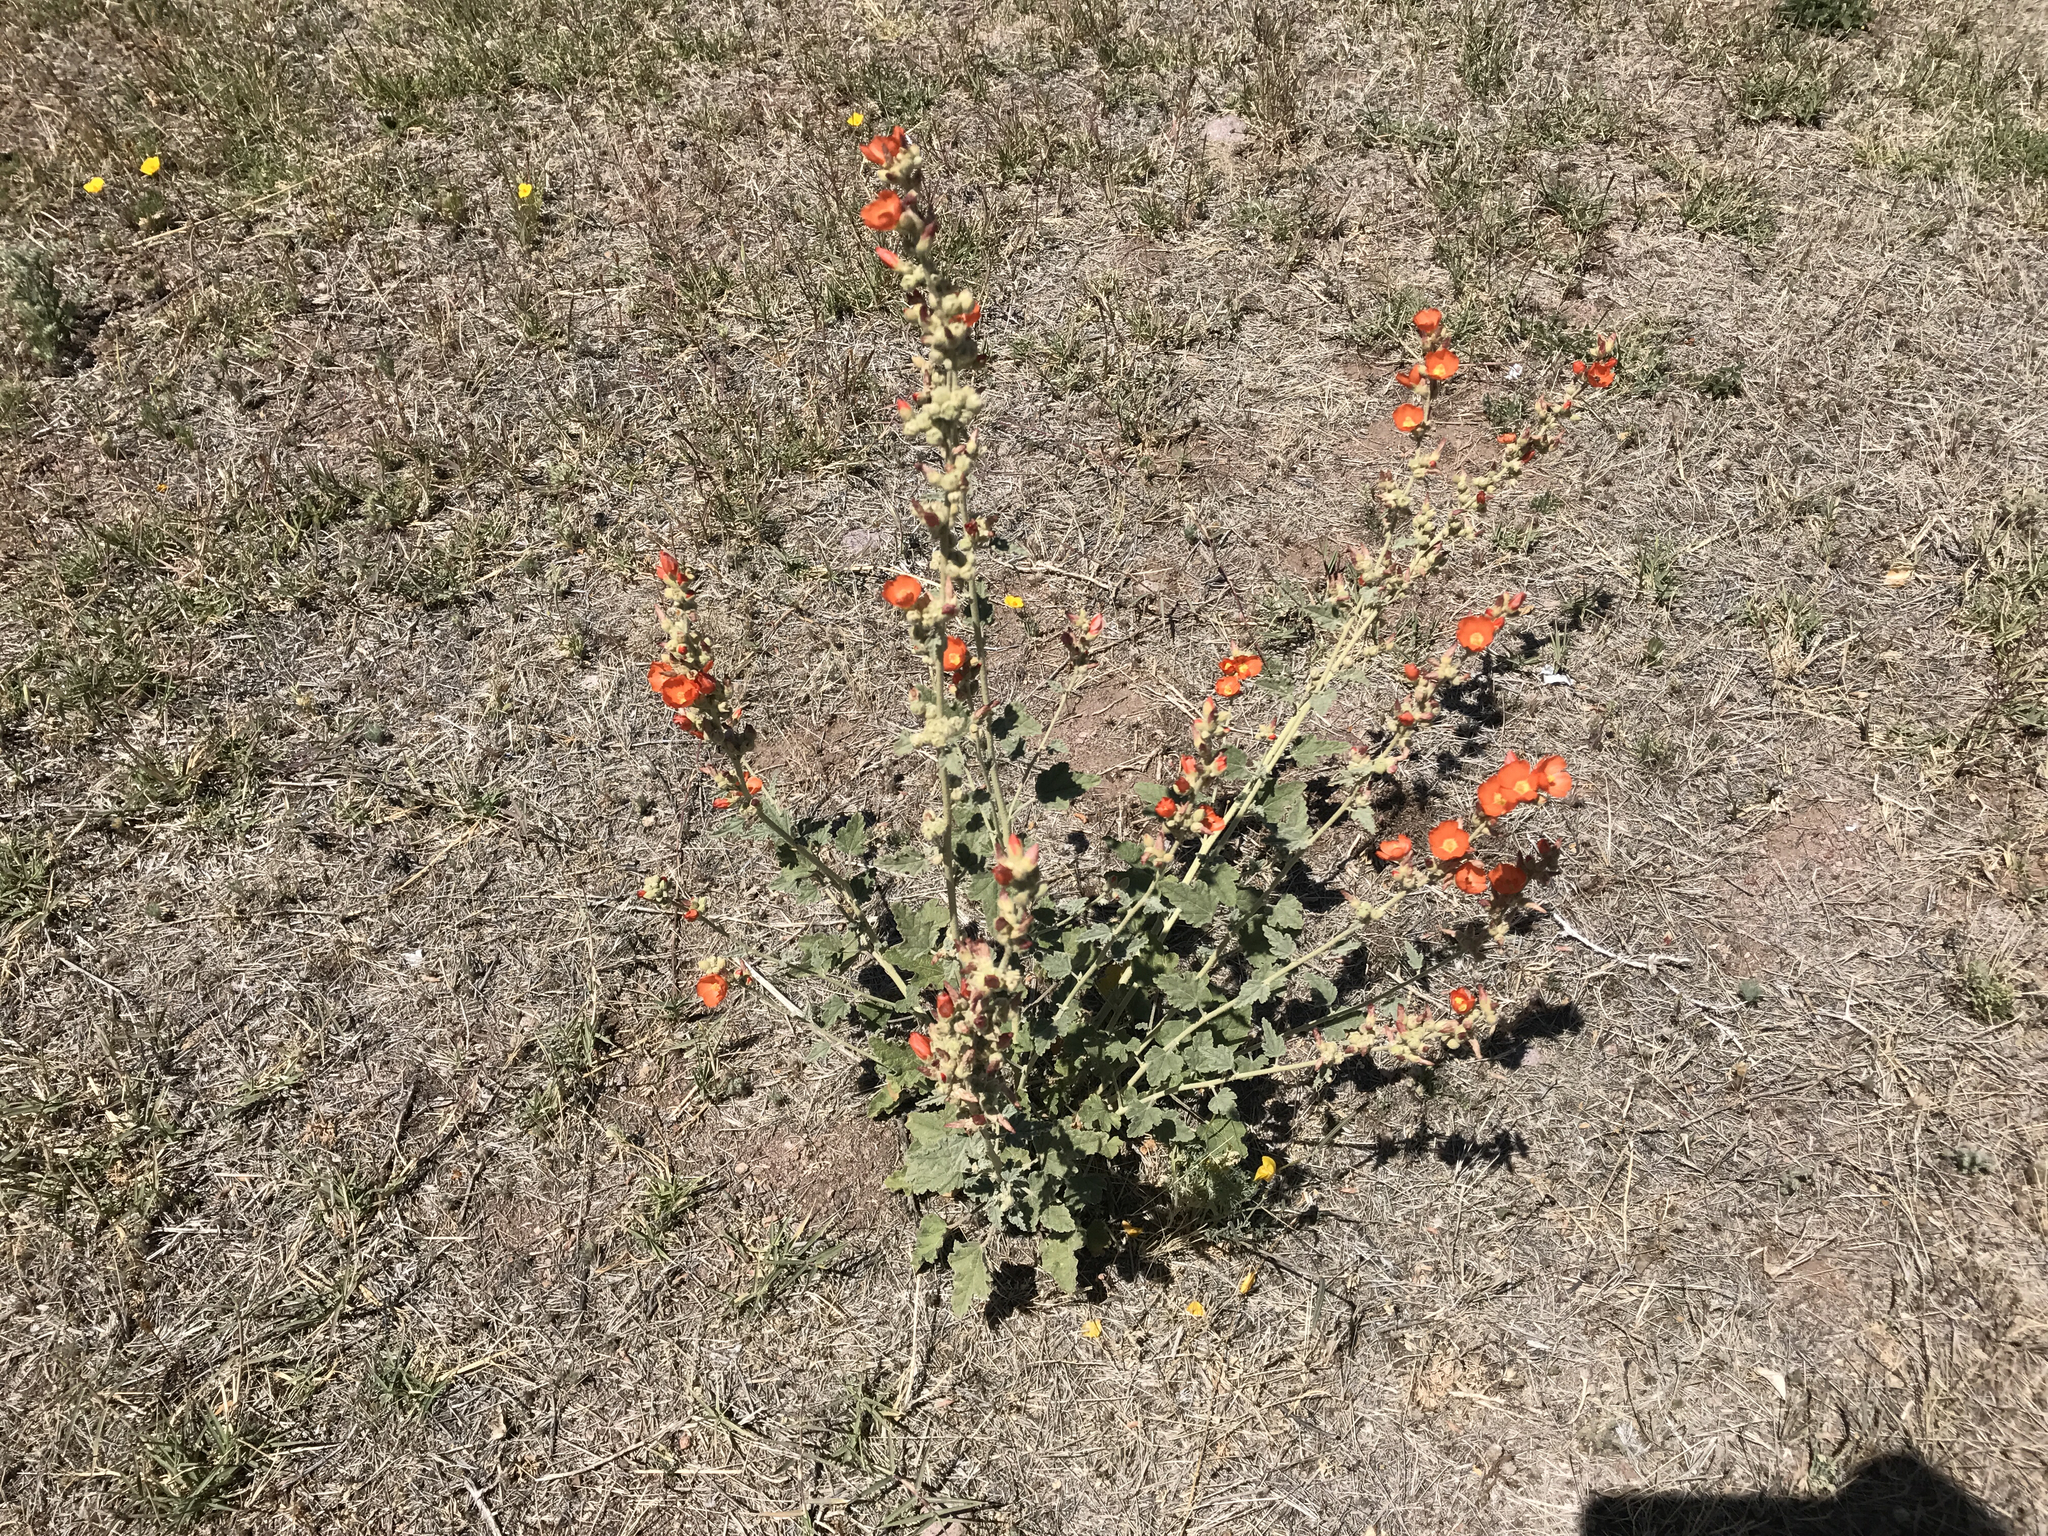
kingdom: Plantae
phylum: Tracheophyta
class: Magnoliopsida
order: Malvales
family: Malvaceae
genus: Sphaeralcea
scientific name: Sphaeralcea ambigua
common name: Apricot globe-mallow
